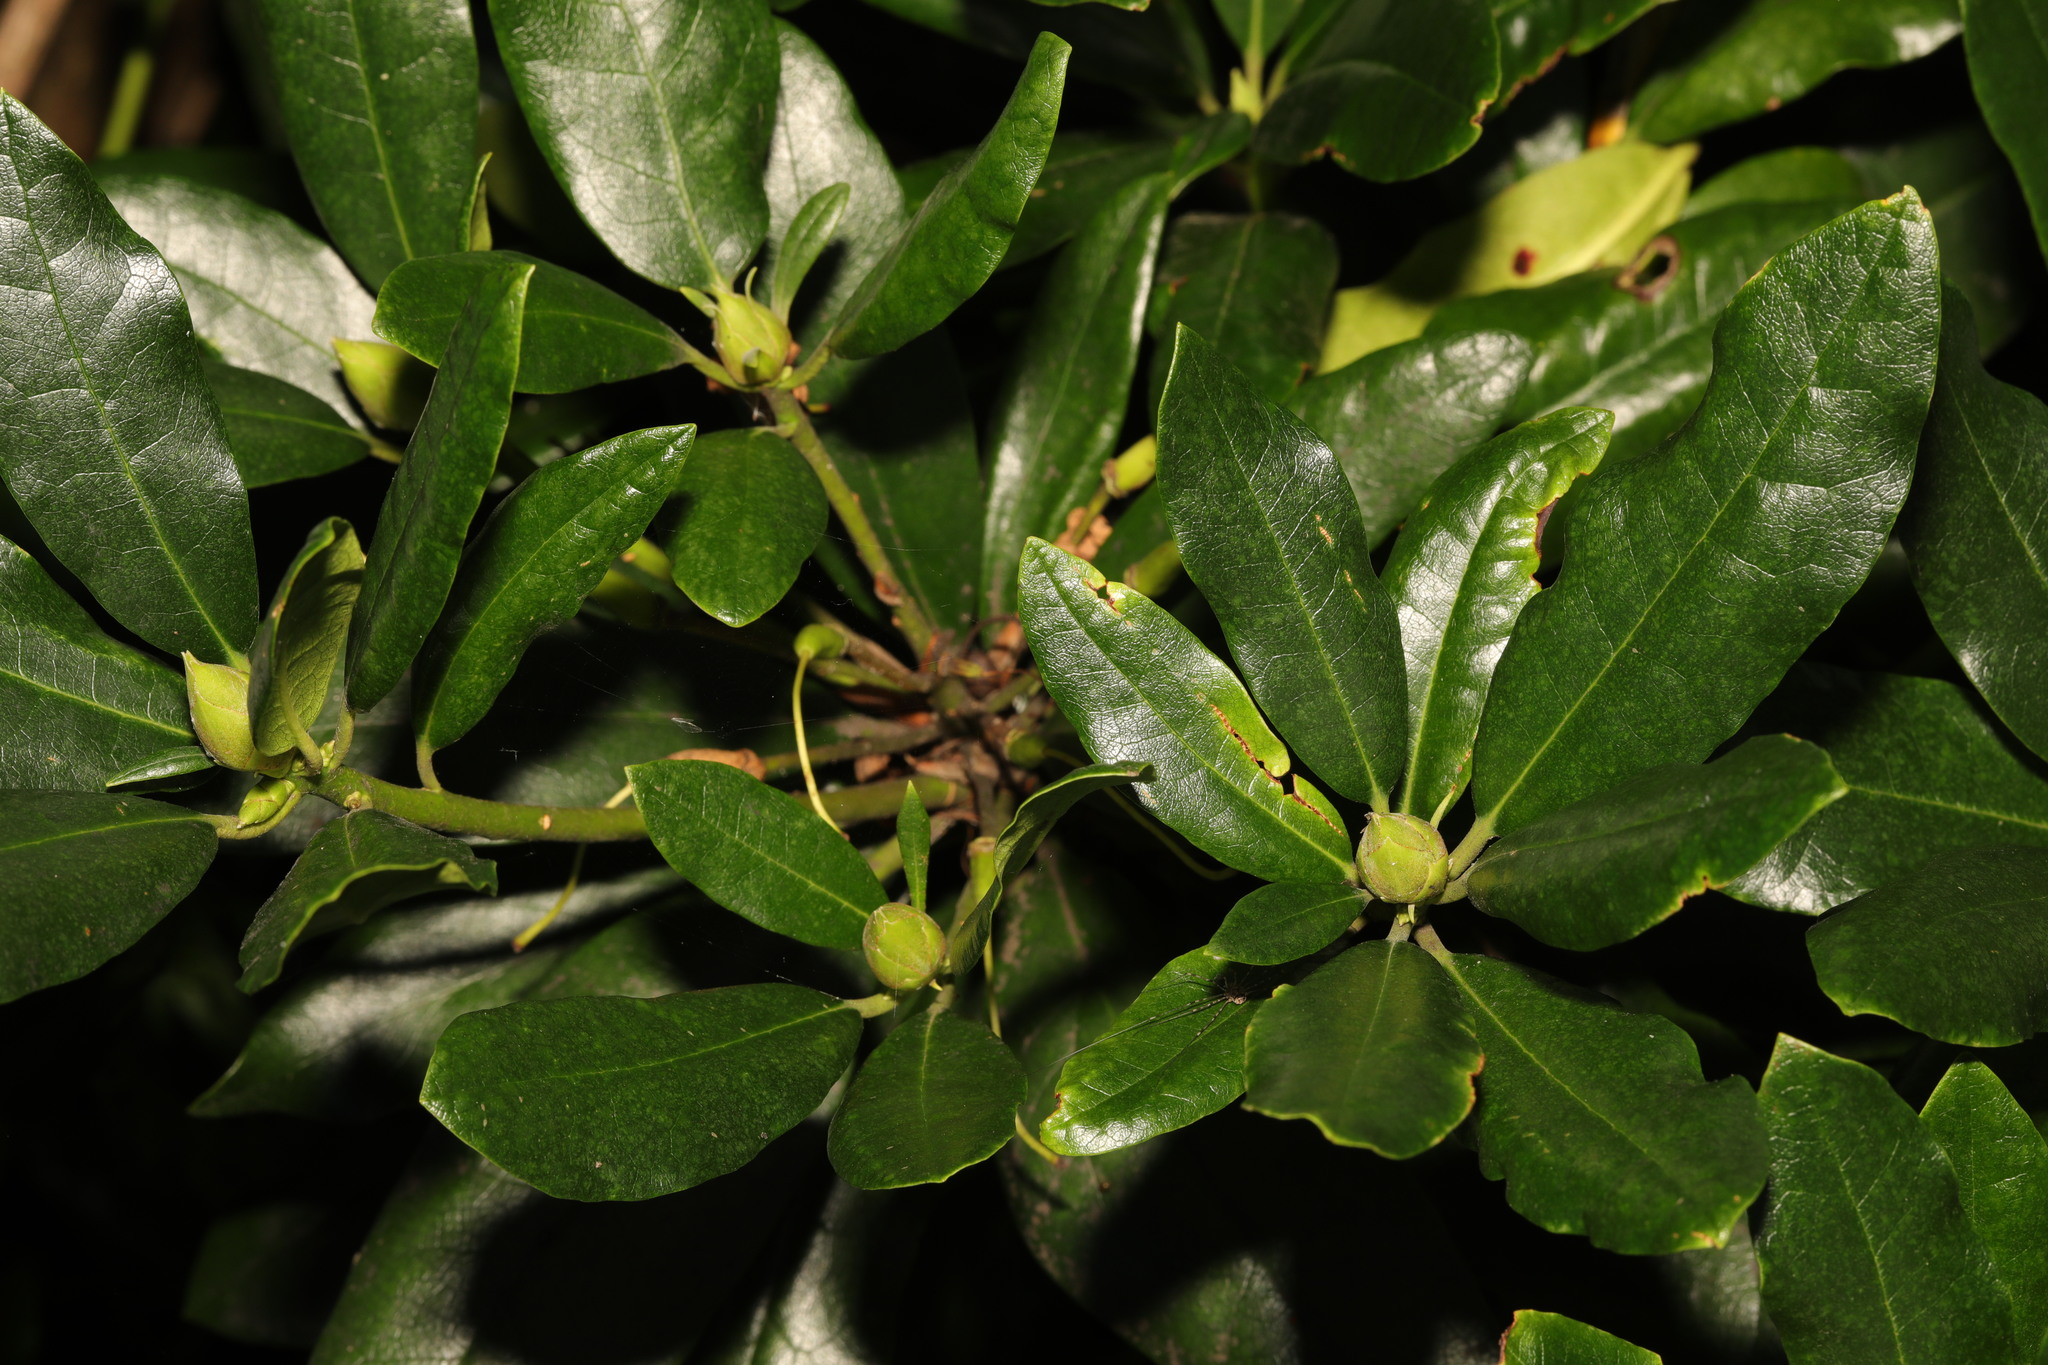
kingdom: Plantae
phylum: Tracheophyta
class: Magnoliopsida
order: Ericales
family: Ericaceae
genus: Rhododendron
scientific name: Rhododendron ponticum
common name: Rhododendron
